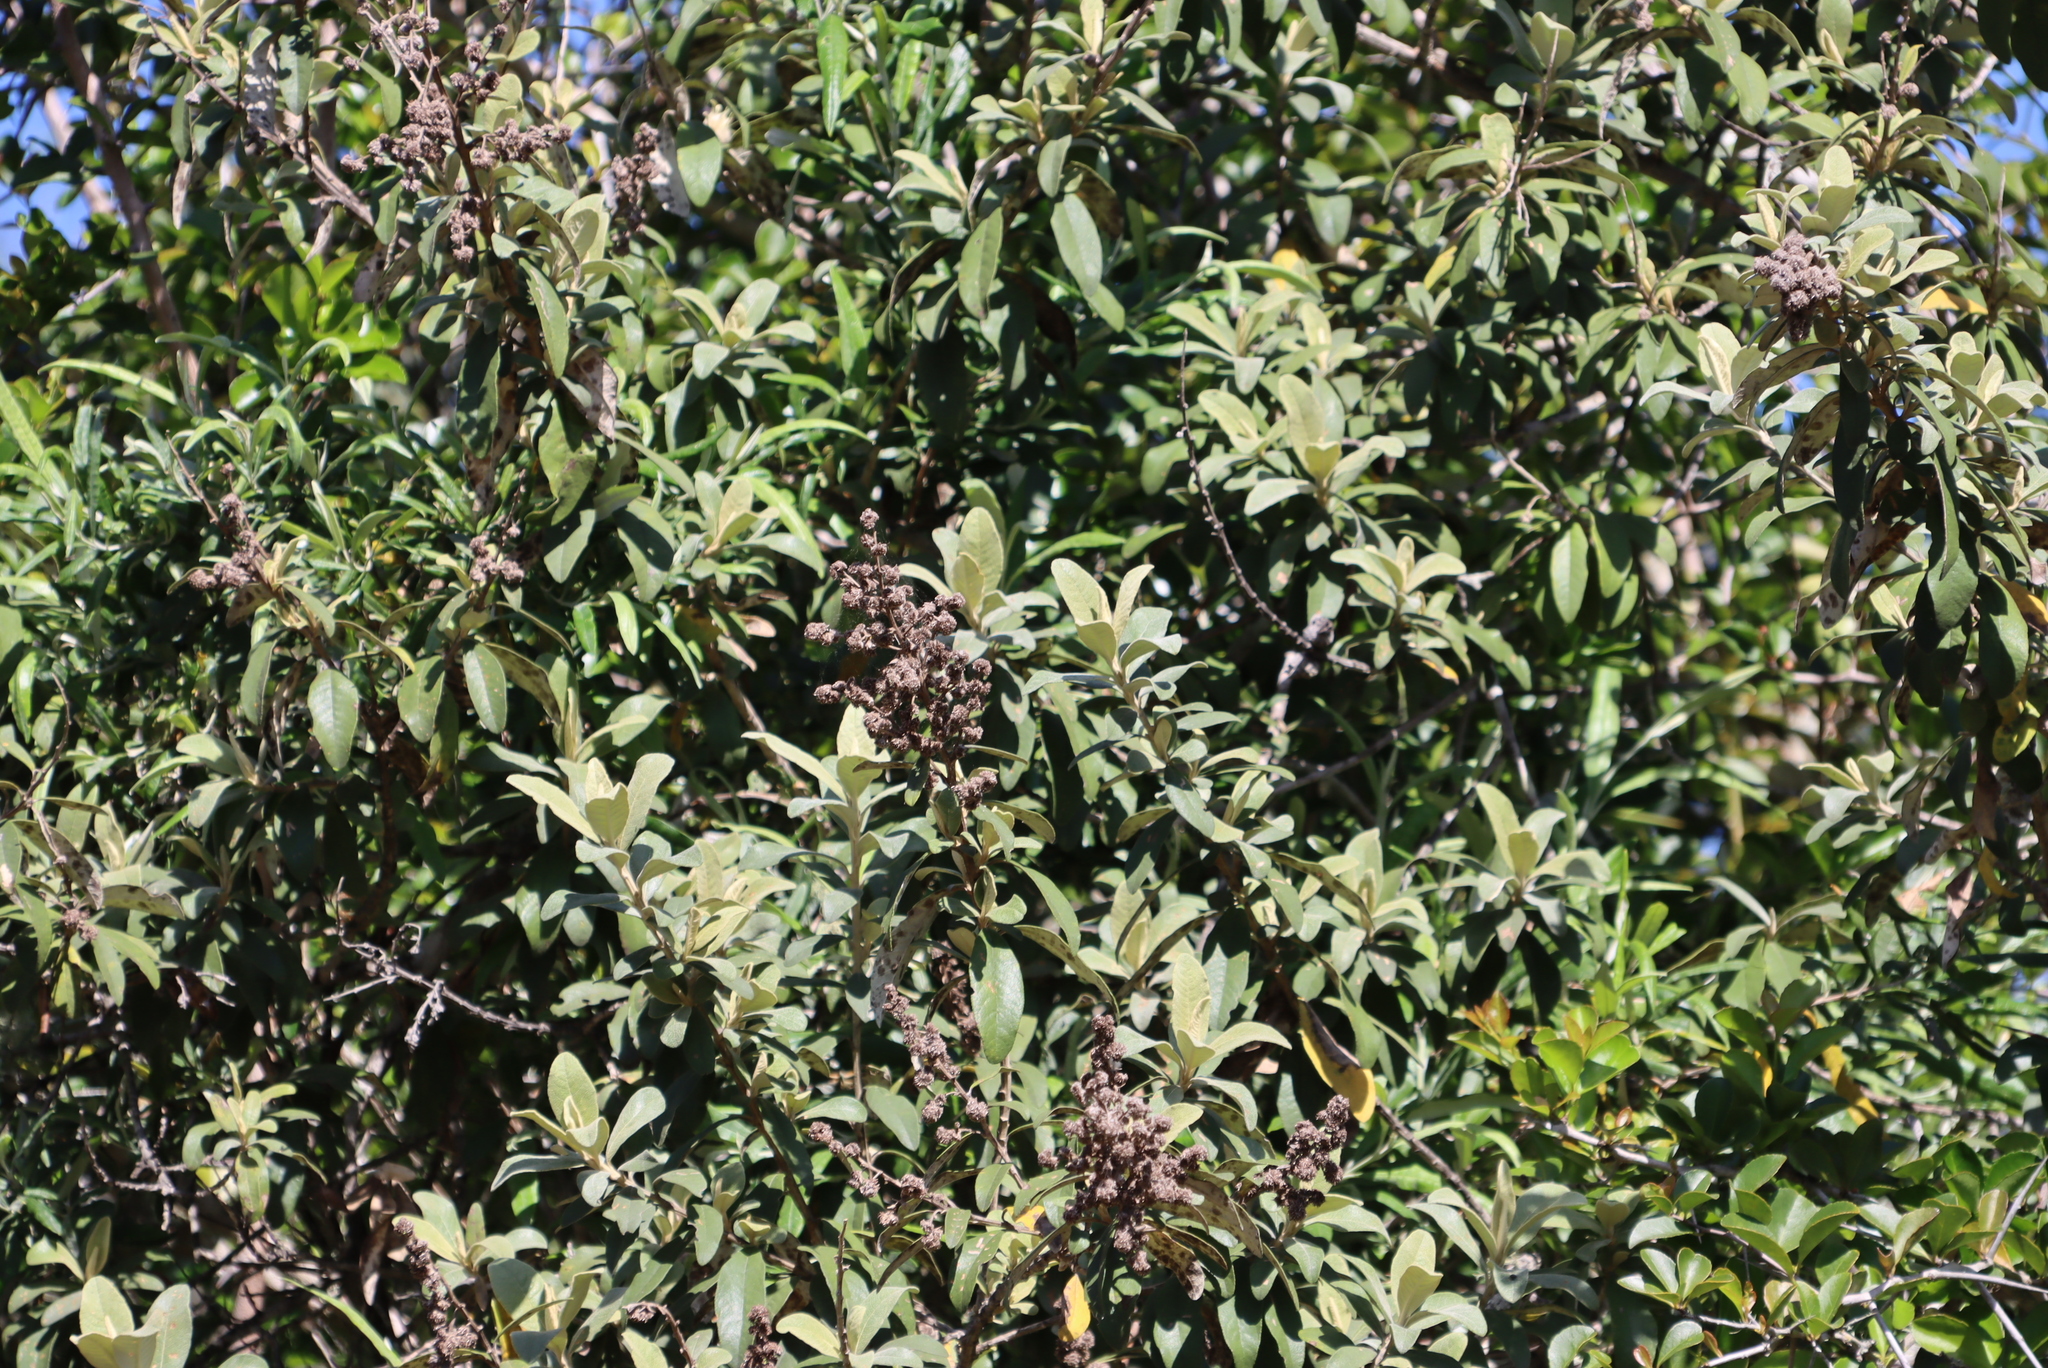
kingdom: Plantae
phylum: Tracheophyta
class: Magnoliopsida
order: Asterales
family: Asteraceae
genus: Tarchonanthus
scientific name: Tarchonanthus littoralis
